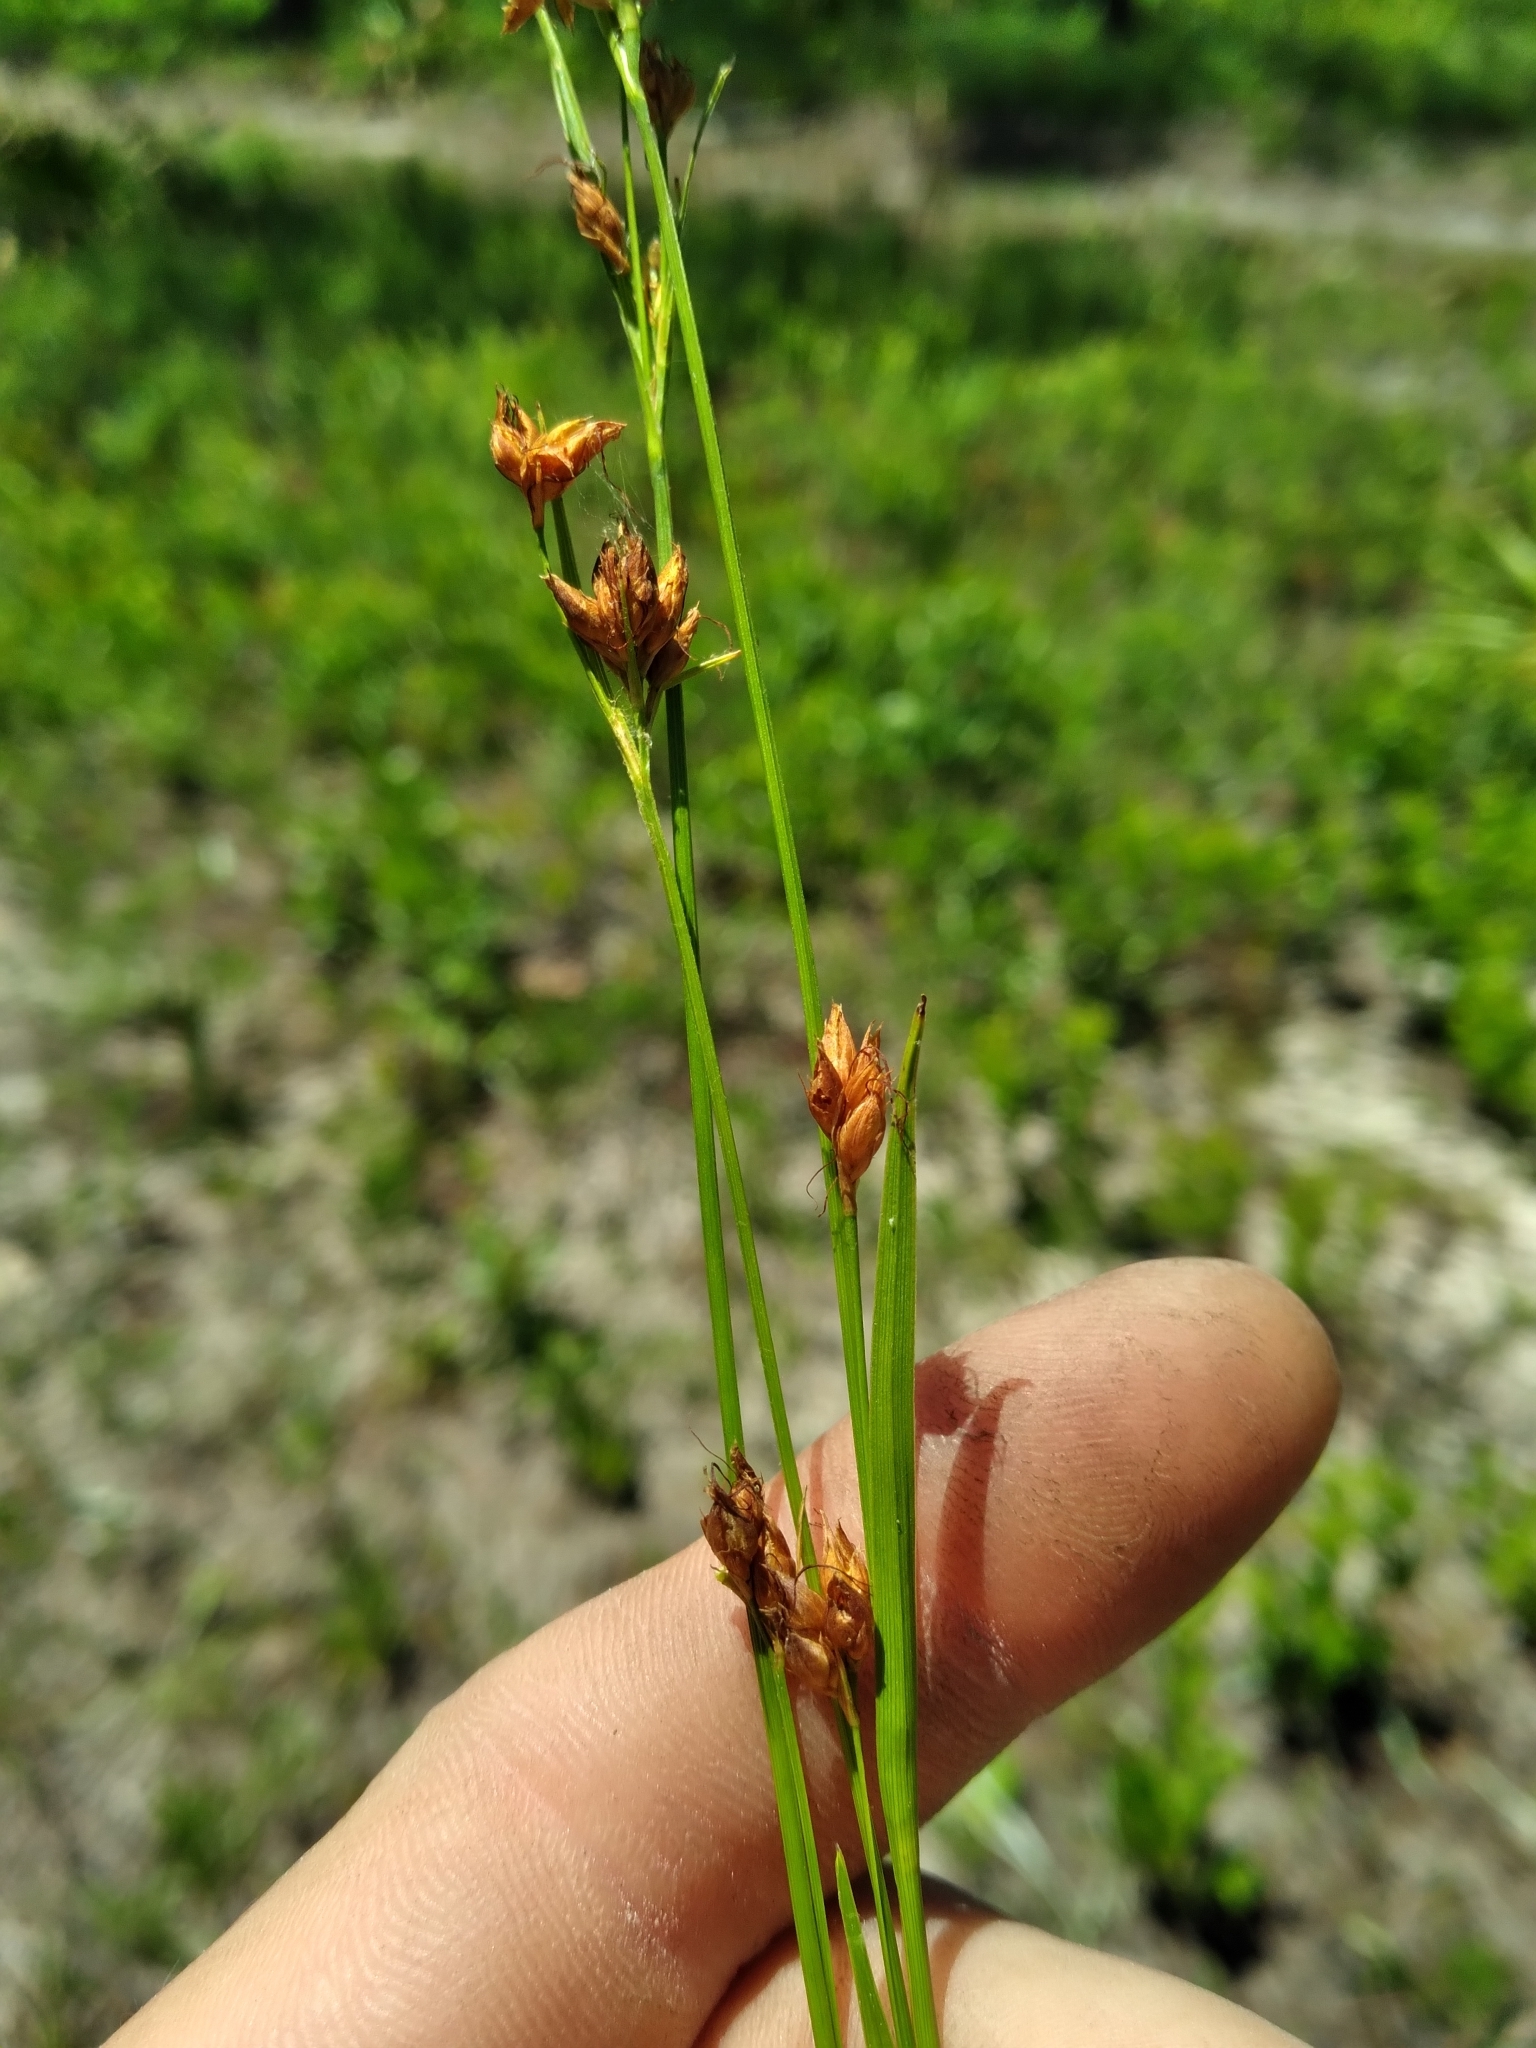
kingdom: Plantae
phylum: Tracheophyta
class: Liliopsida
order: Poales
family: Cyperaceae
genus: Rhynchospora
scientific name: Rhynchospora grayi
